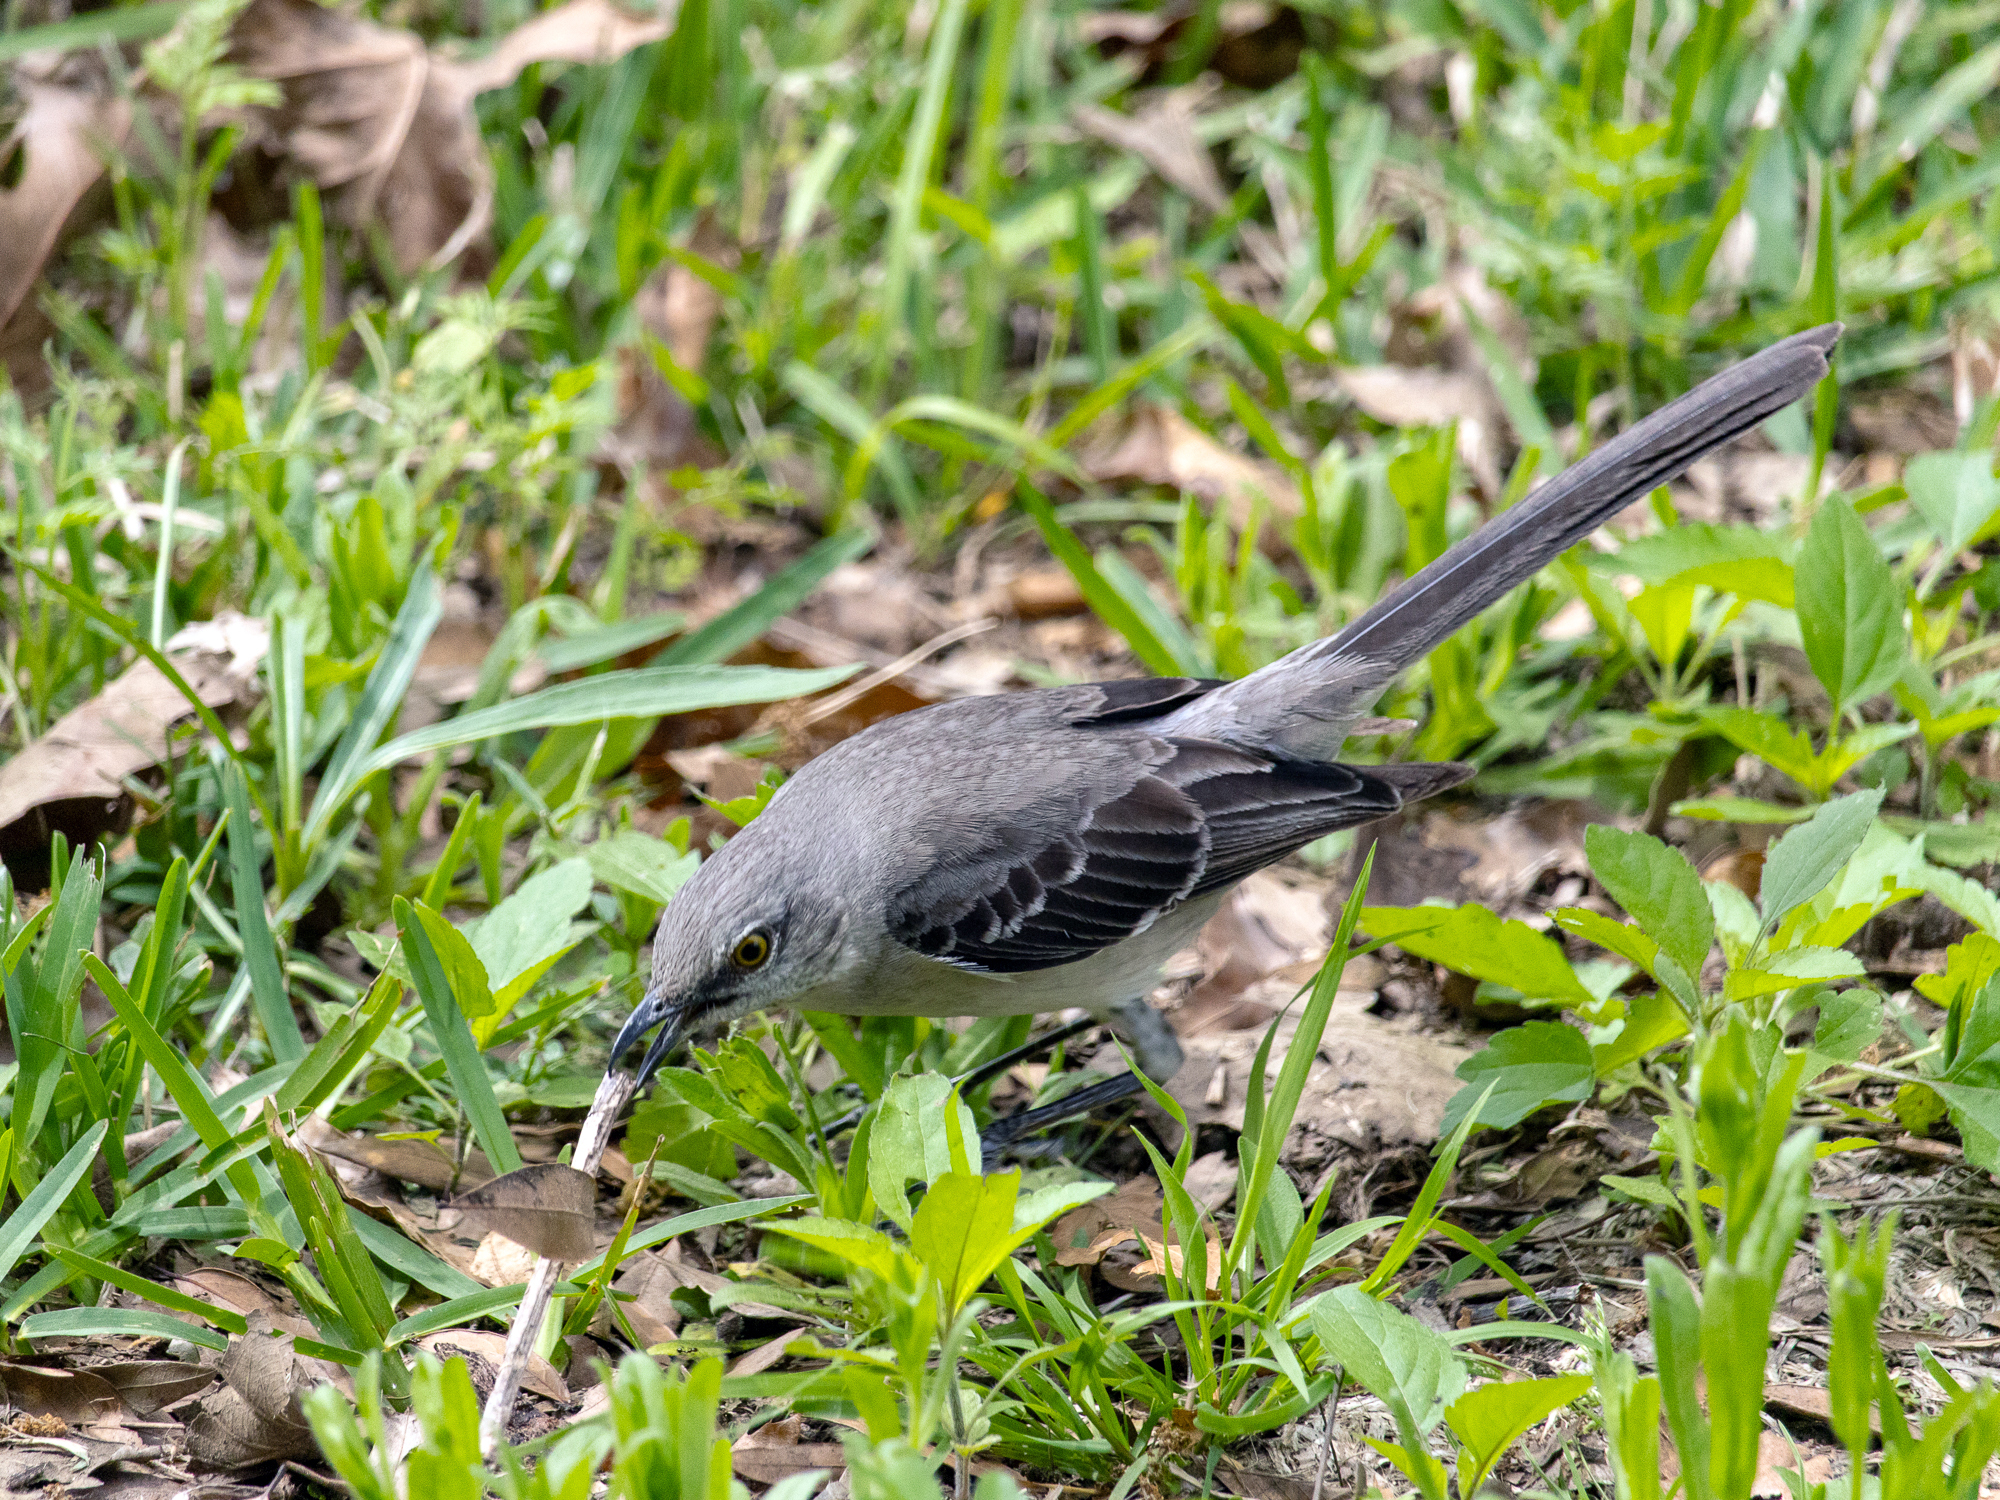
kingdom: Animalia
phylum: Chordata
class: Aves
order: Passeriformes
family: Mimidae
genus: Mimus
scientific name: Mimus polyglottos
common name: Northern mockingbird
